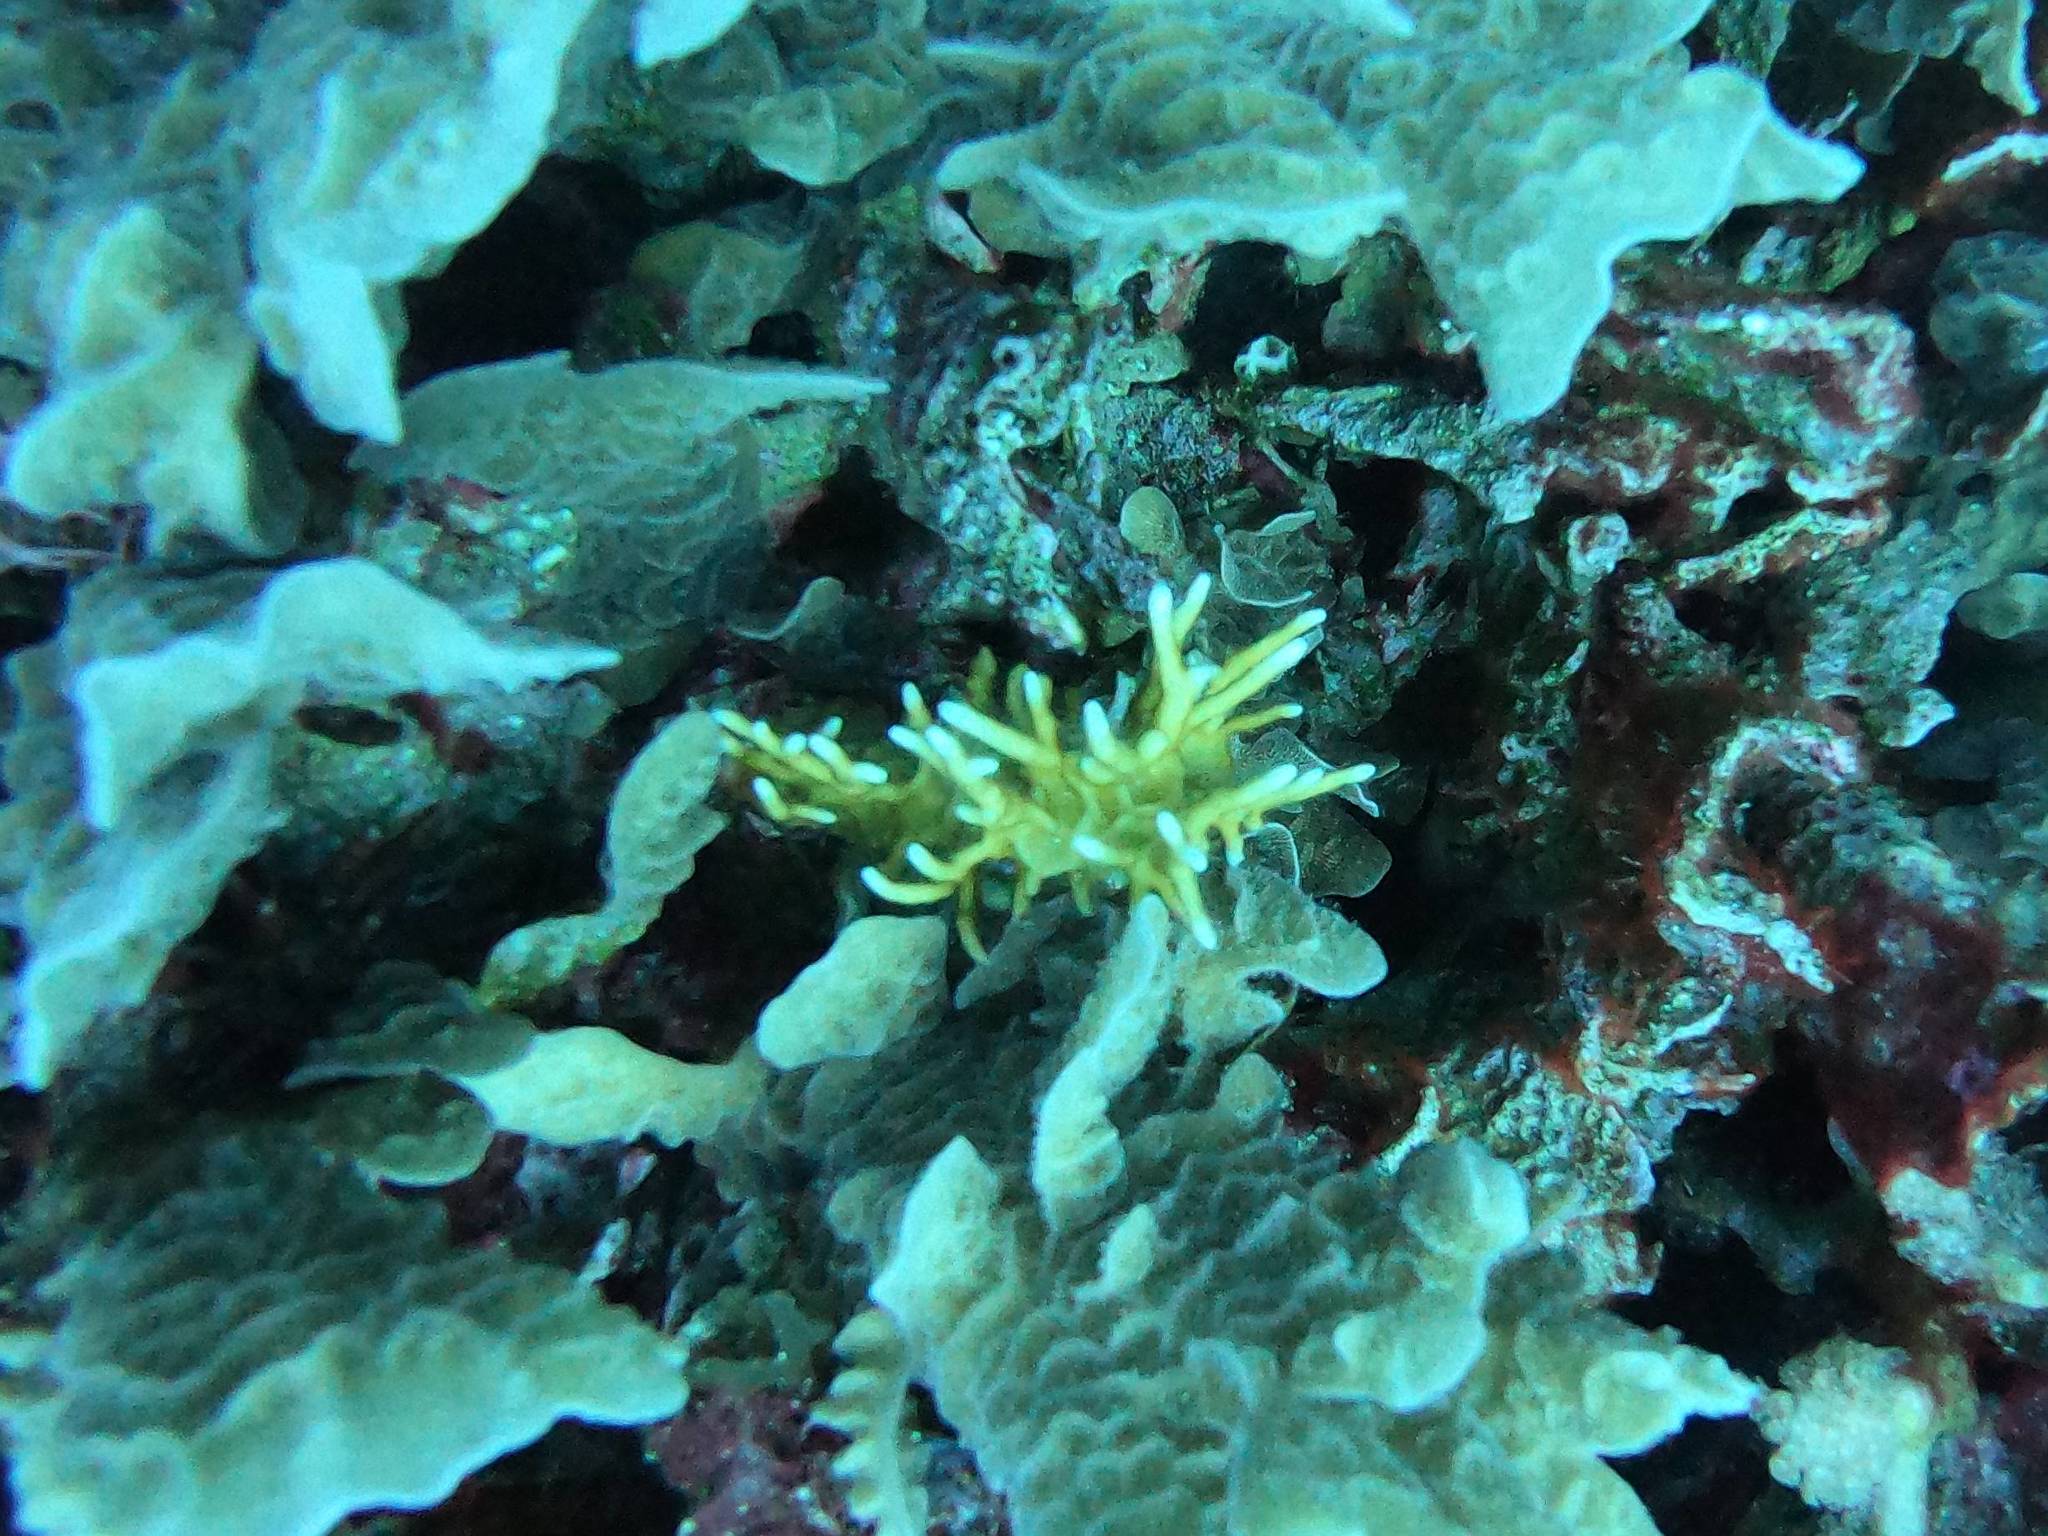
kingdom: Animalia
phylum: Cnidaria
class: Hydrozoa
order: Anthoathecata
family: Milleporidae
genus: Millepora
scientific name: Millepora alcicornis
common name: Branching fire coral
